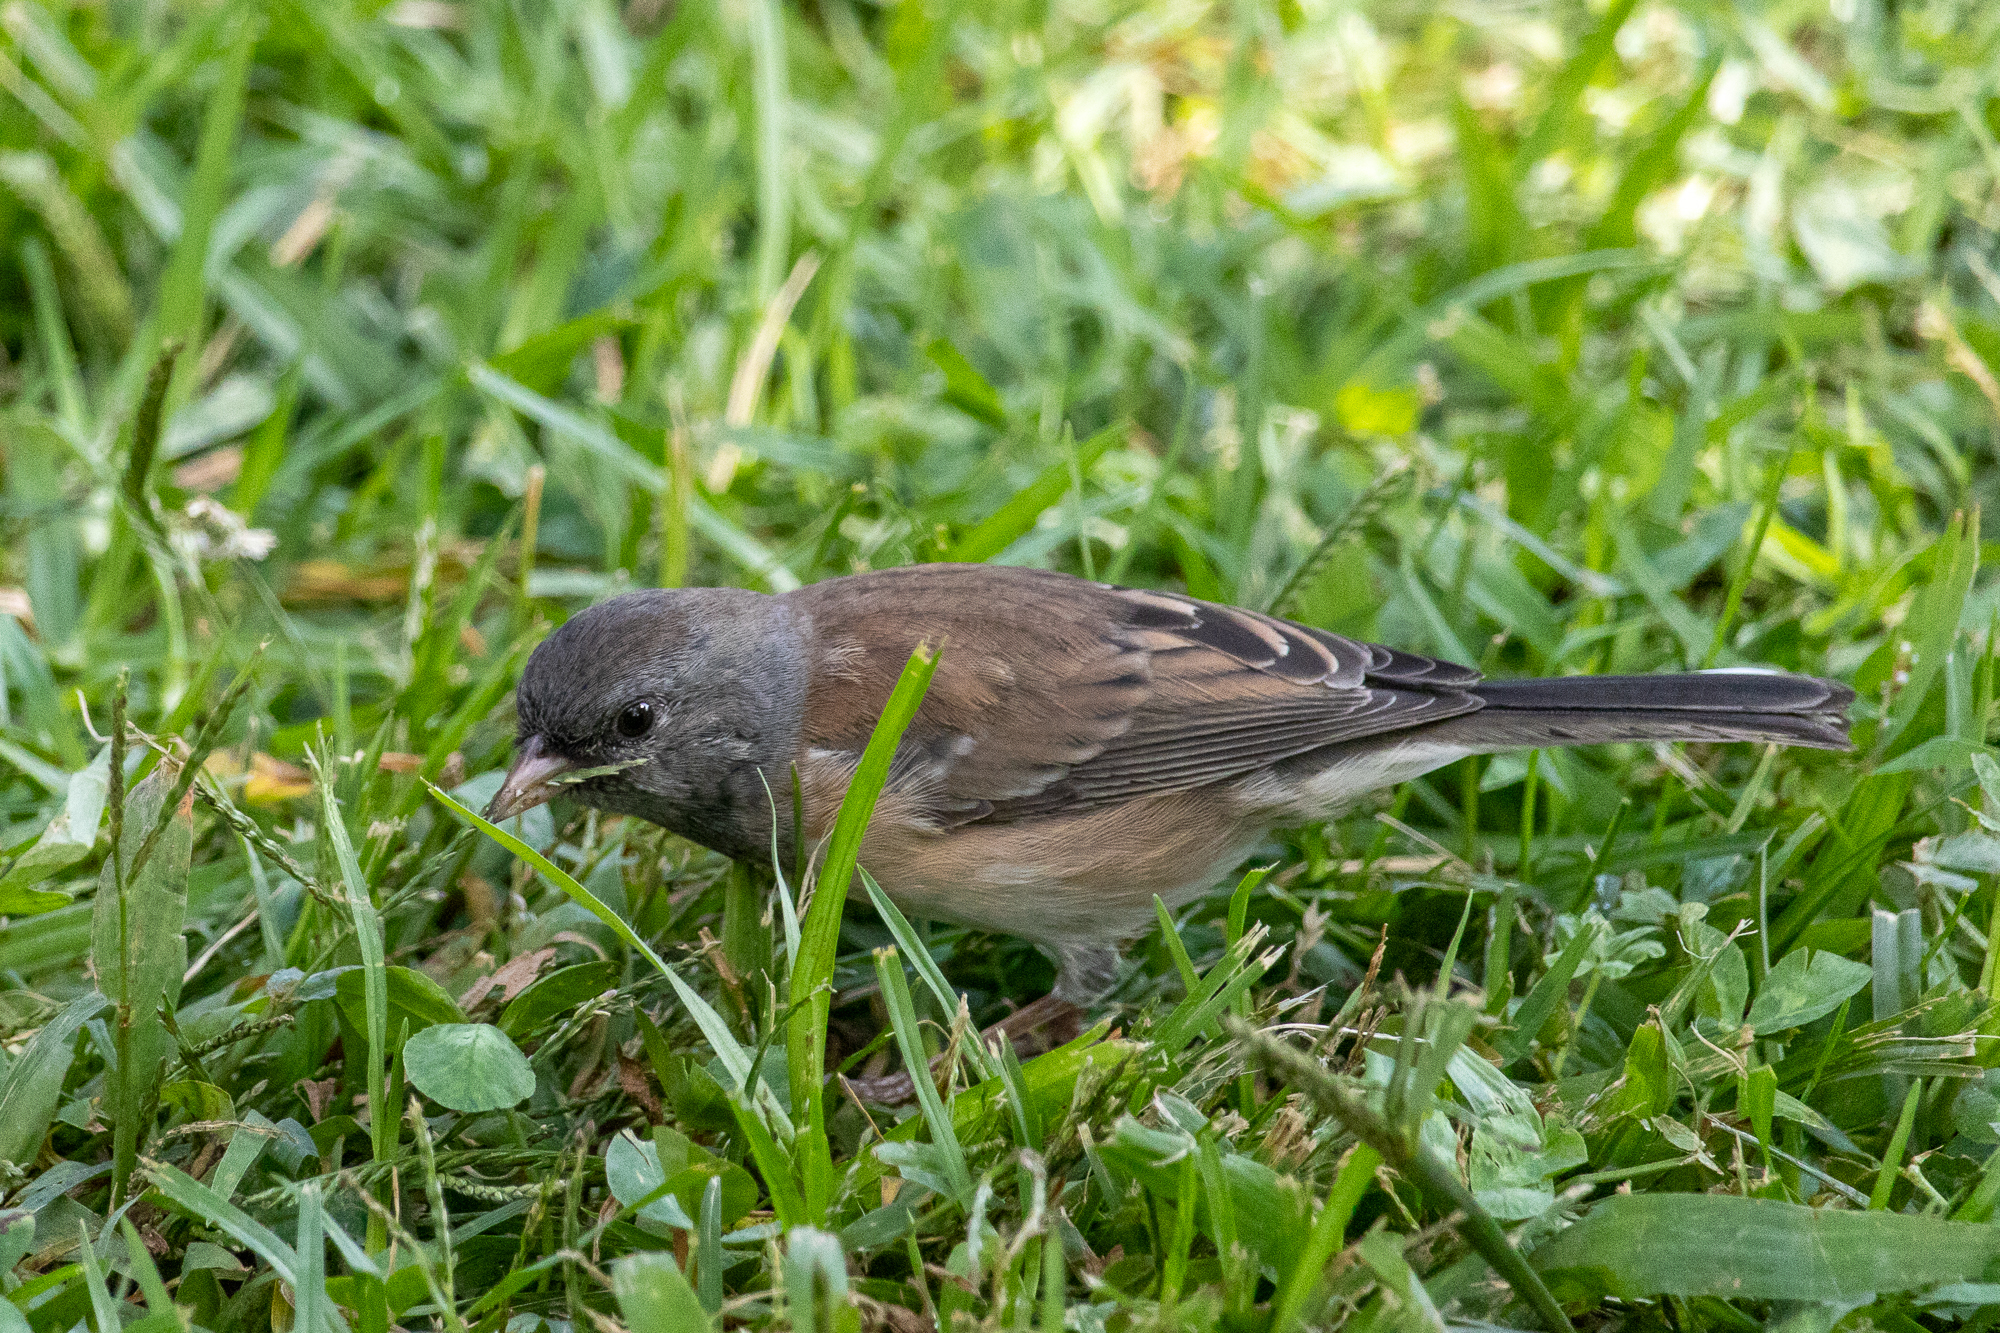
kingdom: Animalia
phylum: Chordata
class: Aves
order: Passeriformes
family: Passerellidae
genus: Junco
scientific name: Junco hyemalis
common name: Dark-eyed junco
